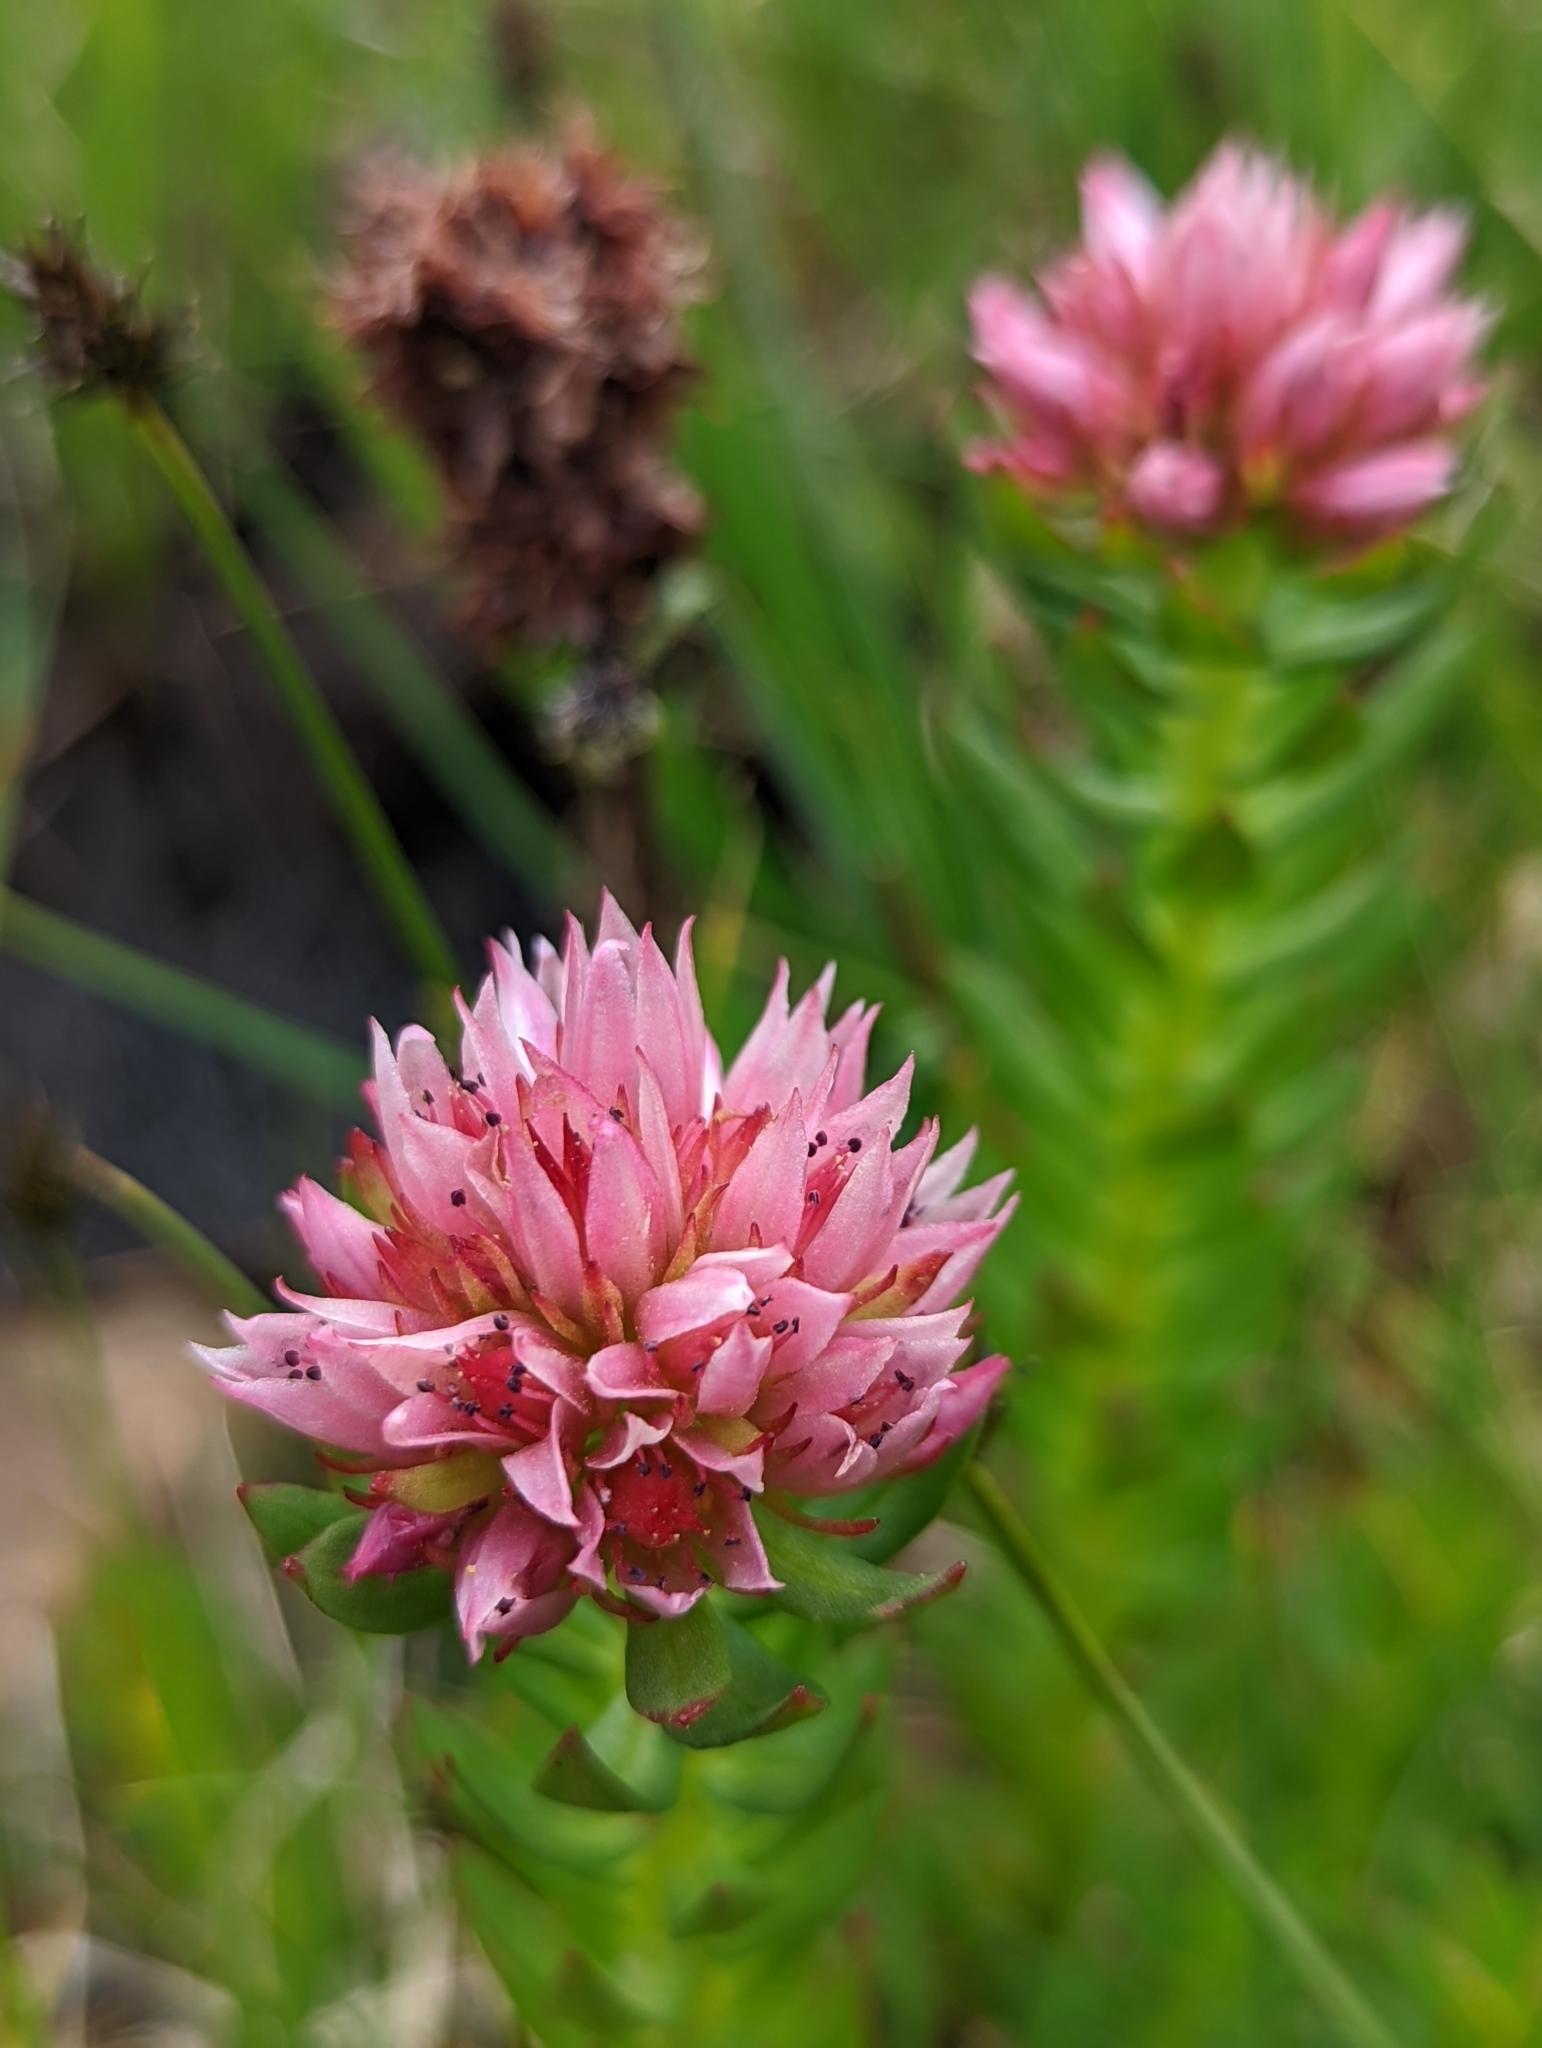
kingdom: Plantae
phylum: Tracheophyta
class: Magnoliopsida
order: Saxifragales
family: Crassulaceae
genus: Rhodiola
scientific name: Rhodiola rhodantha
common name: Red orpine
